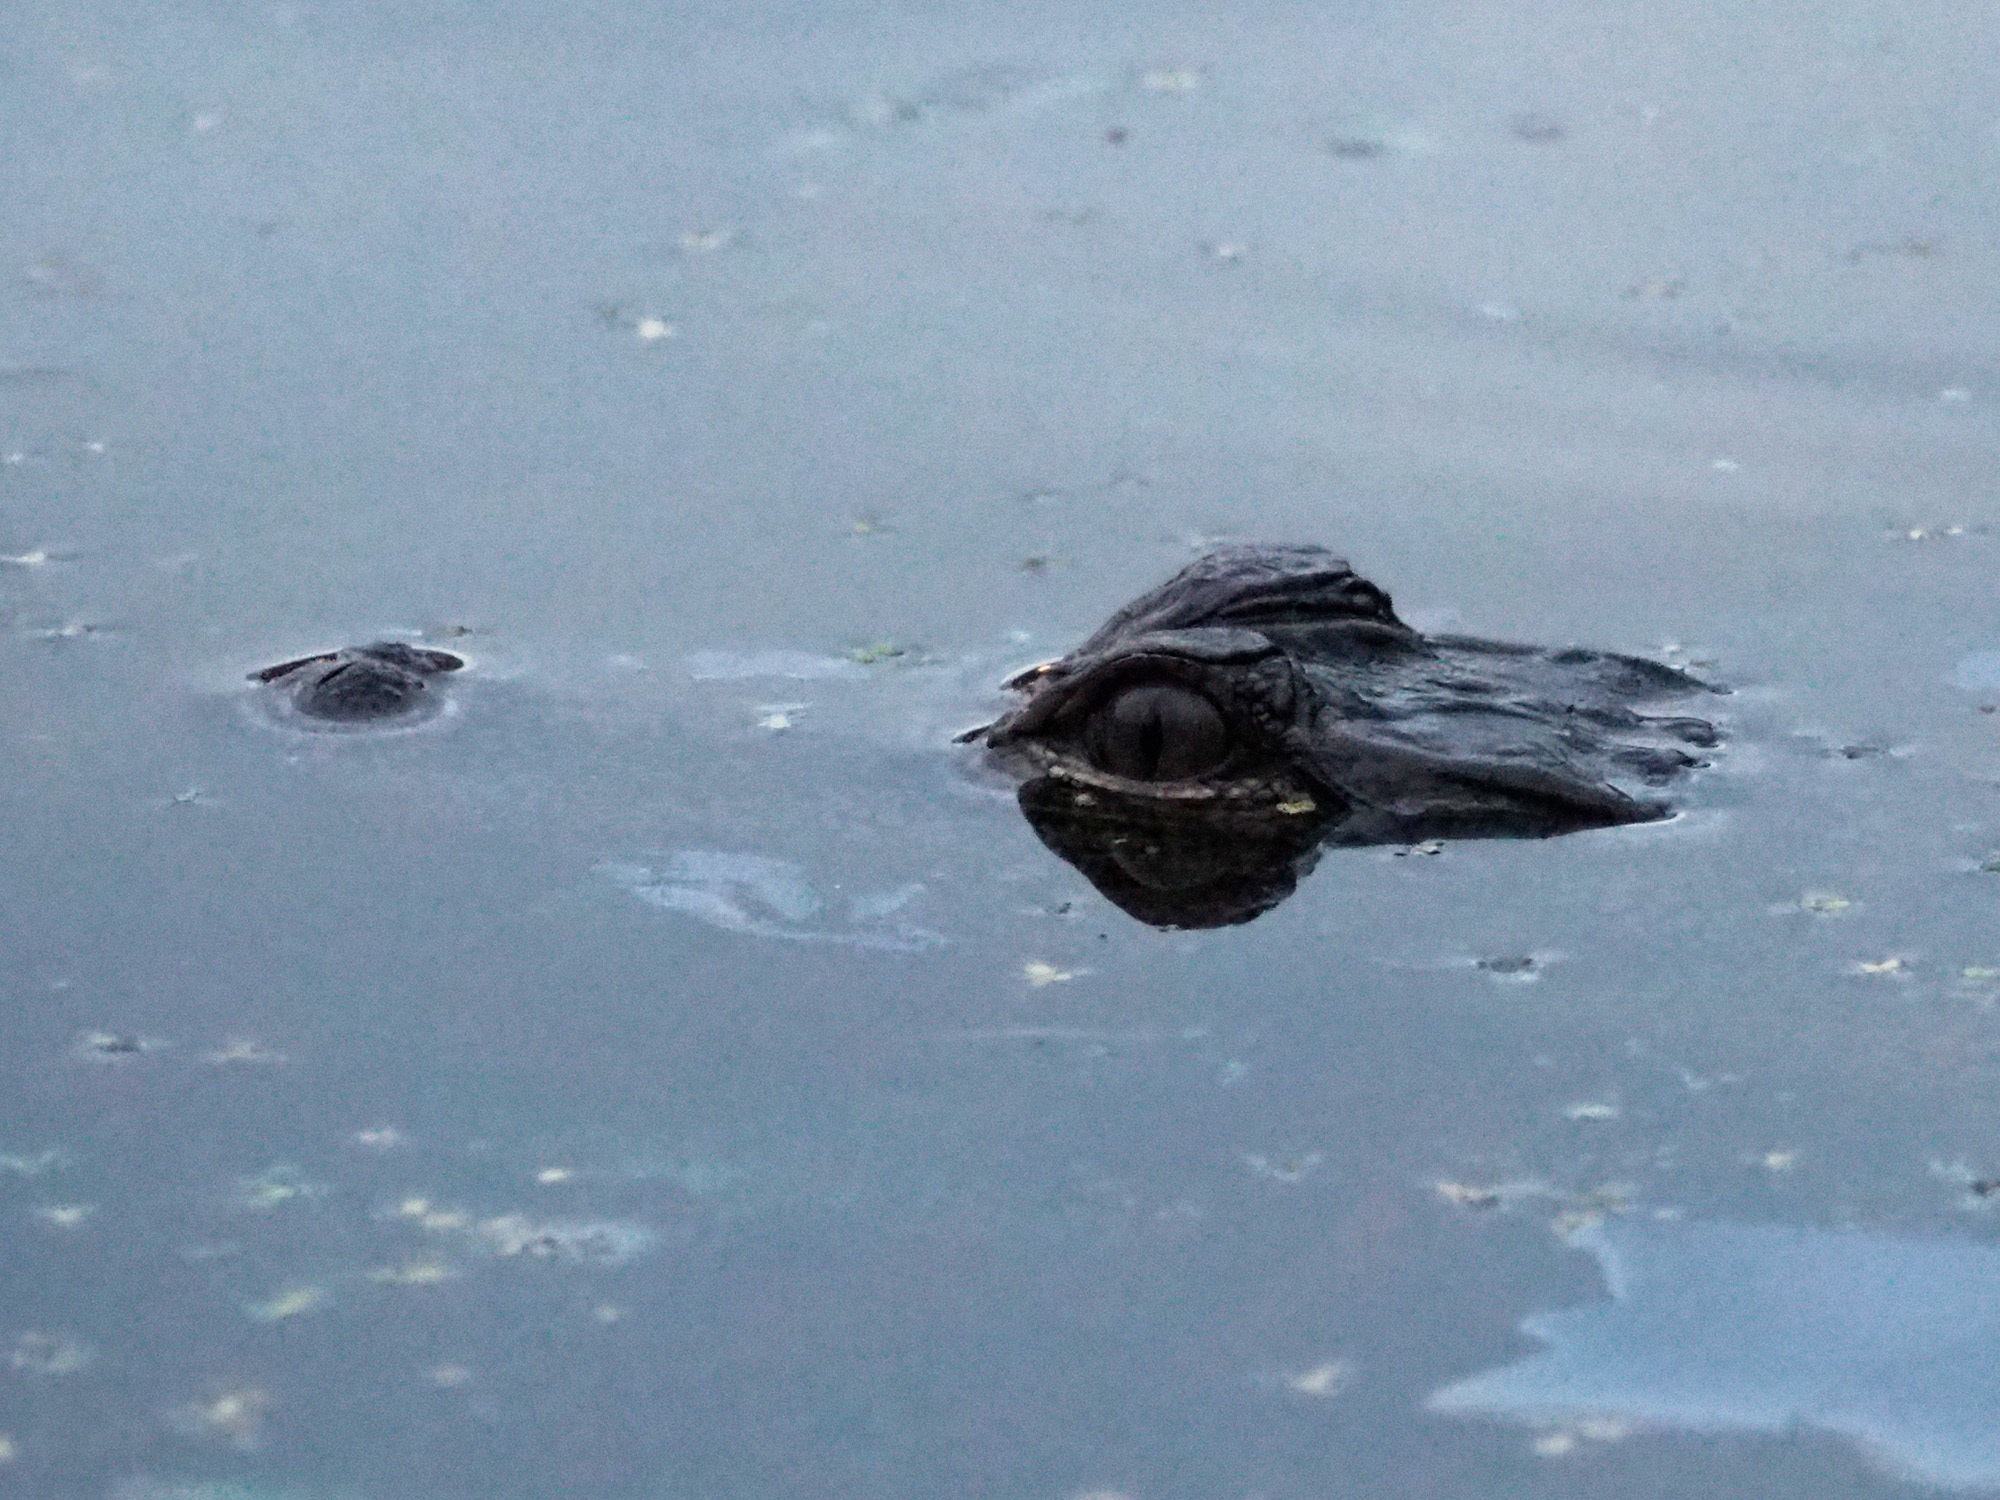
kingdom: Animalia
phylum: Chordata
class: Crocodylia
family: Alligatoridae
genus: Alligator
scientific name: Alligator mississippiensis
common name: American alligator
